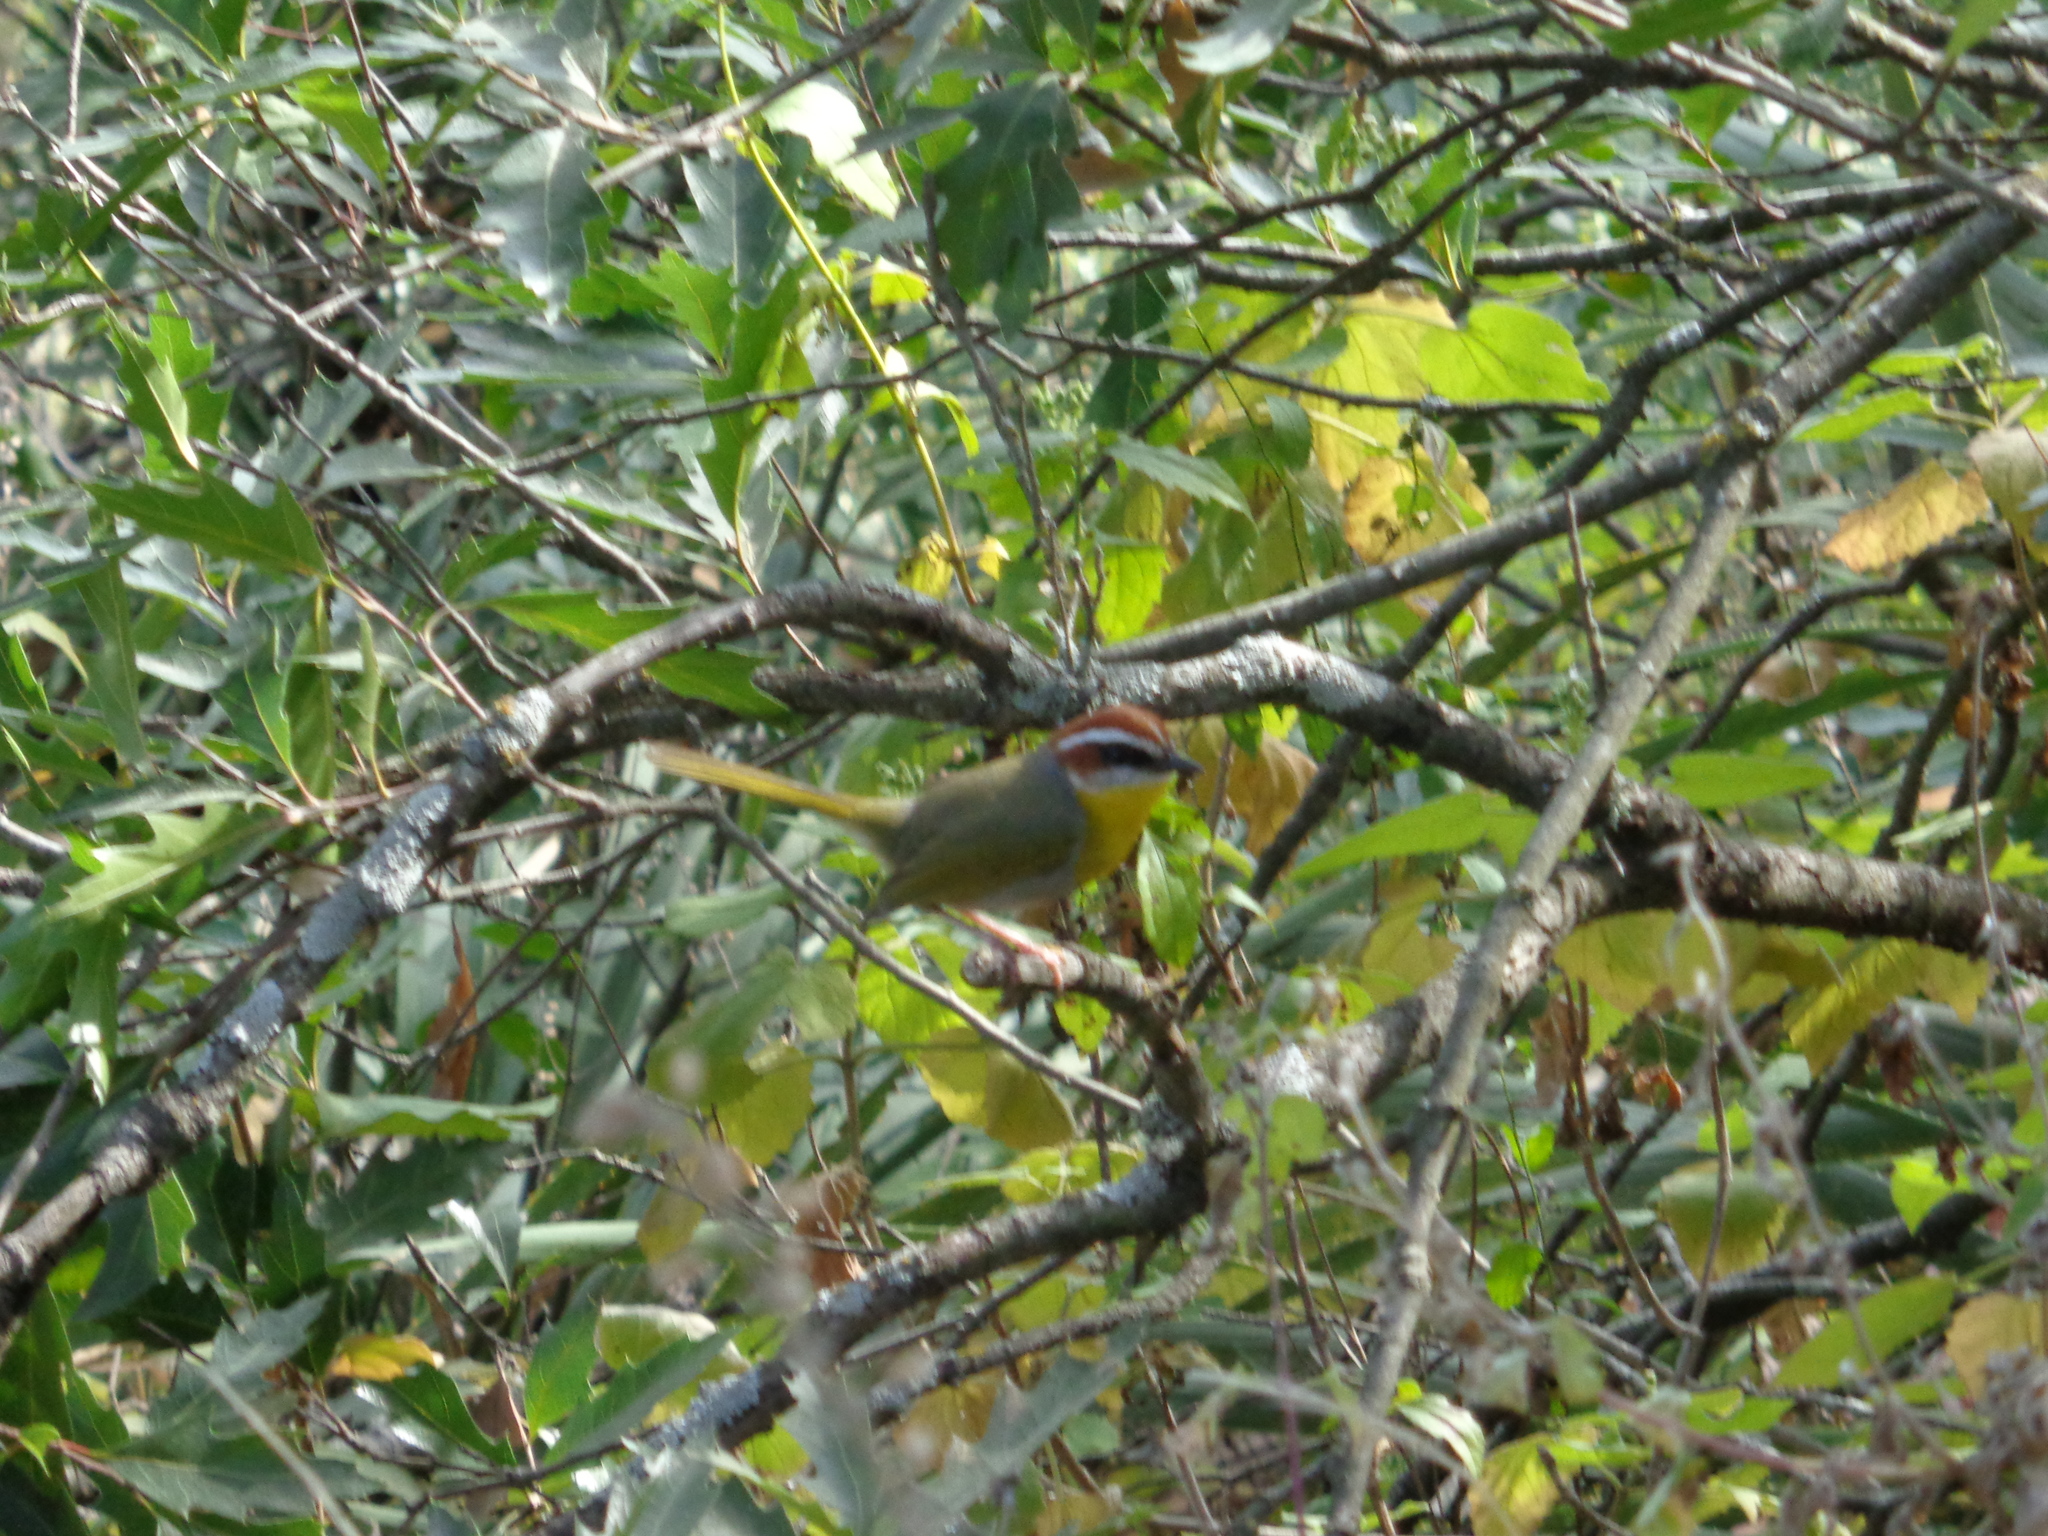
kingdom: Animalia
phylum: Chordata
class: Aves
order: Passeriformes
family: Parulidae
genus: Basileuterus
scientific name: Basileuterus rufifrons
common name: Rufous-capped warbler
